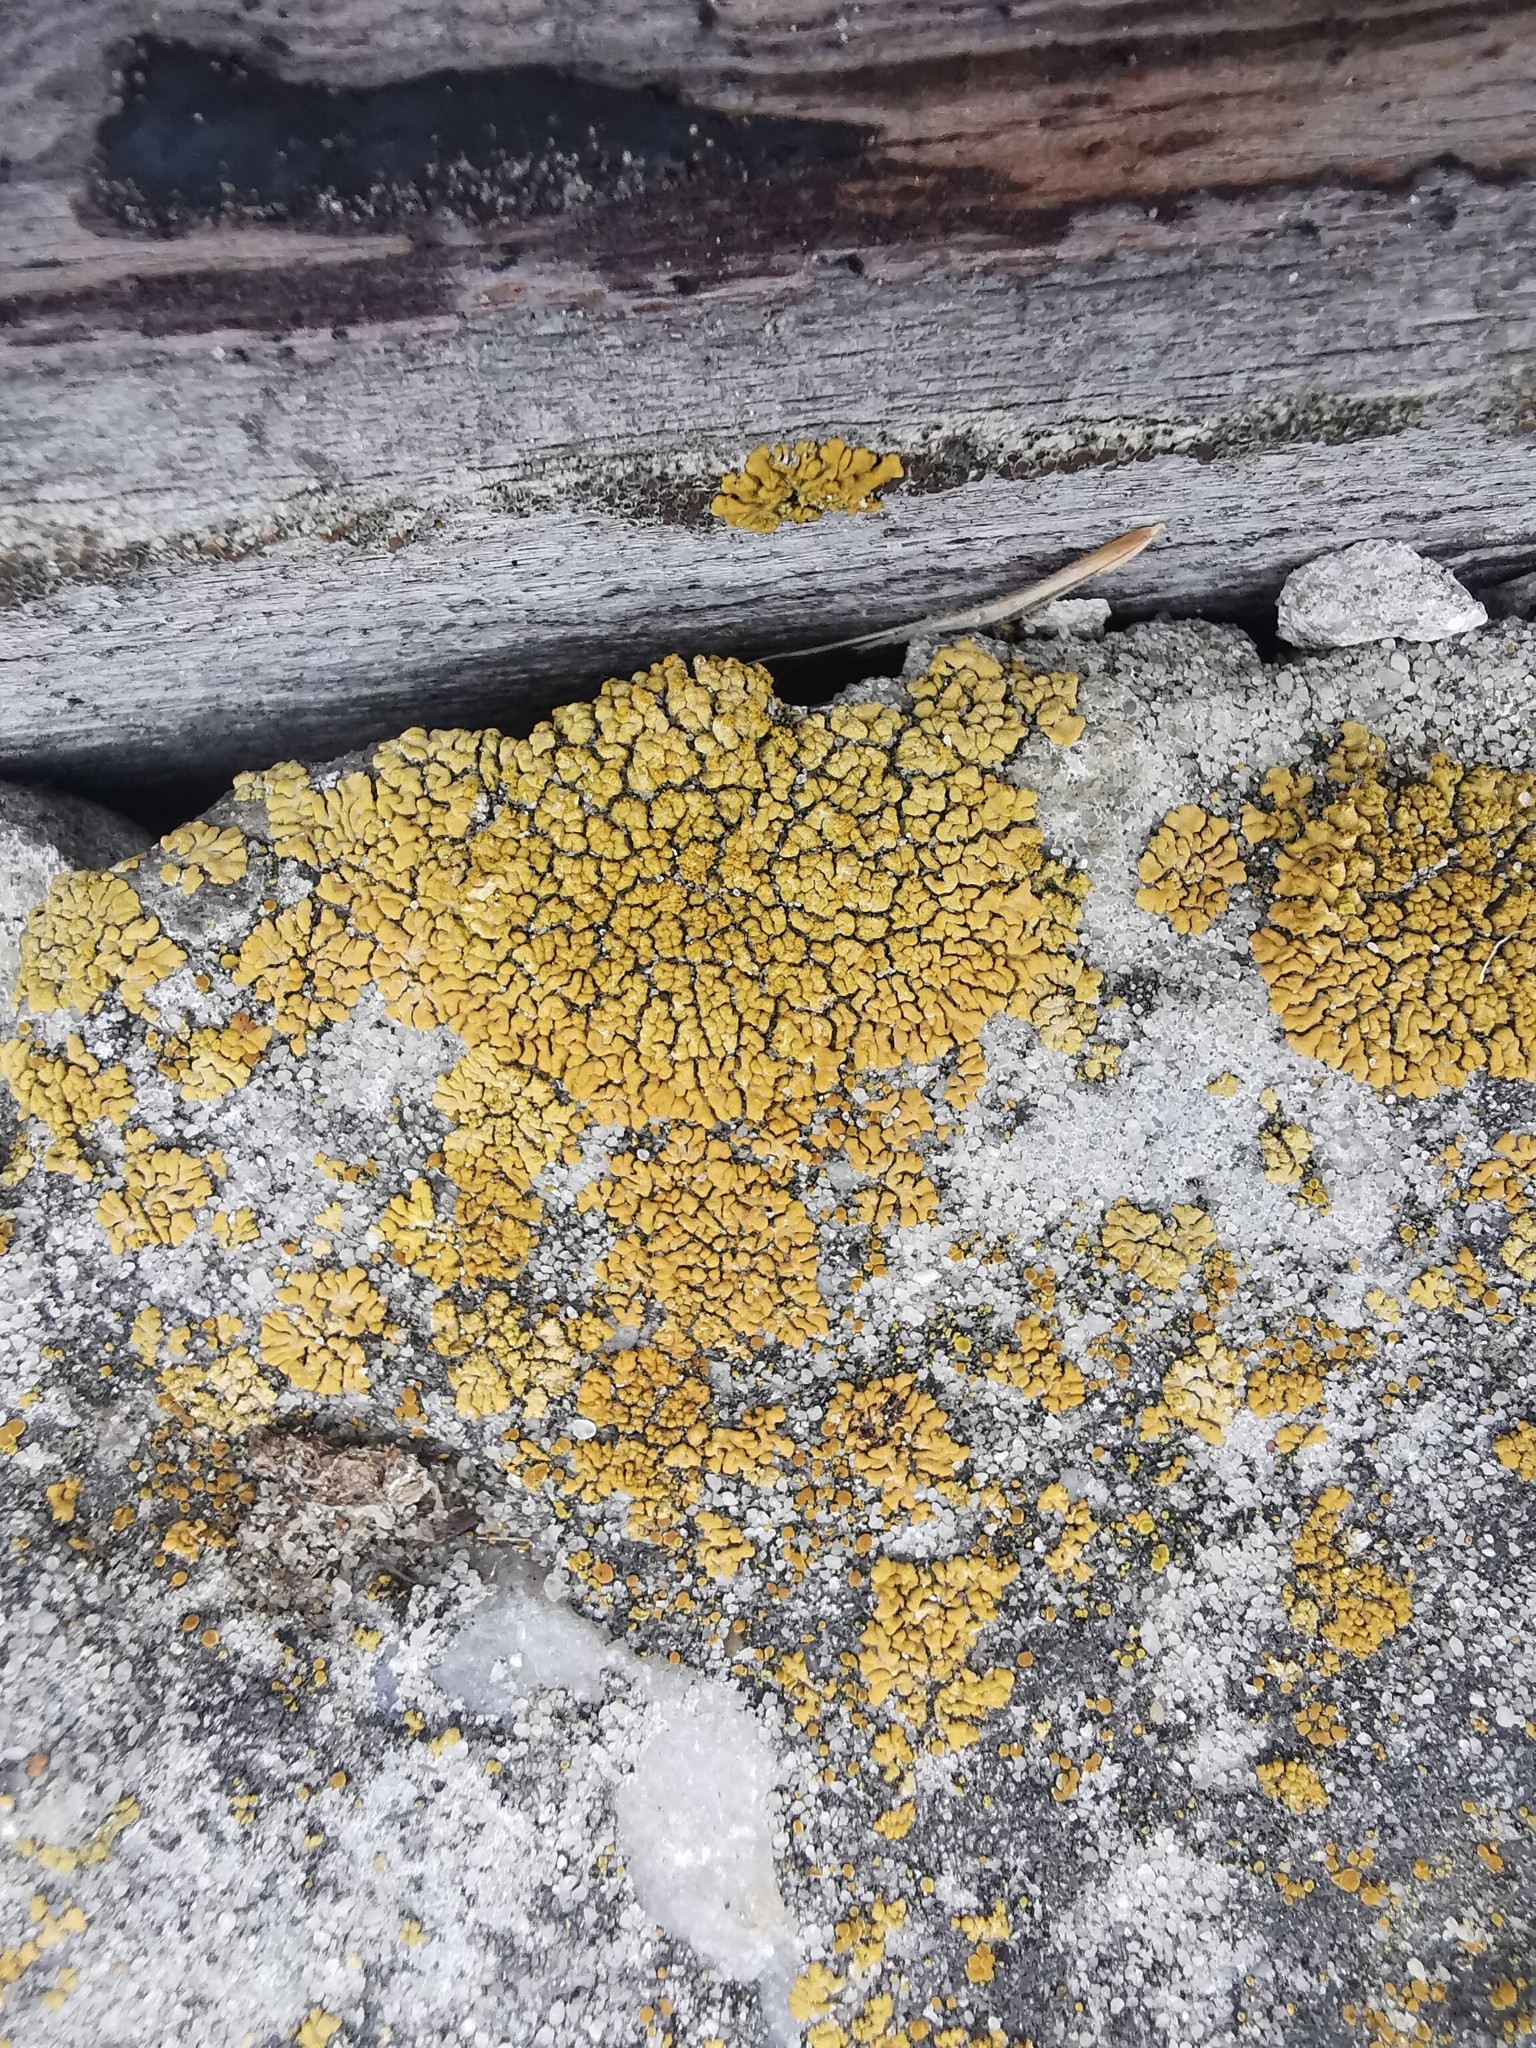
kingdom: Fungi
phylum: Ascomycota
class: Lecanoromycetes
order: Teloschistales
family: Teloschistaceae
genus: Calogaya
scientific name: Calogaya decipiens
